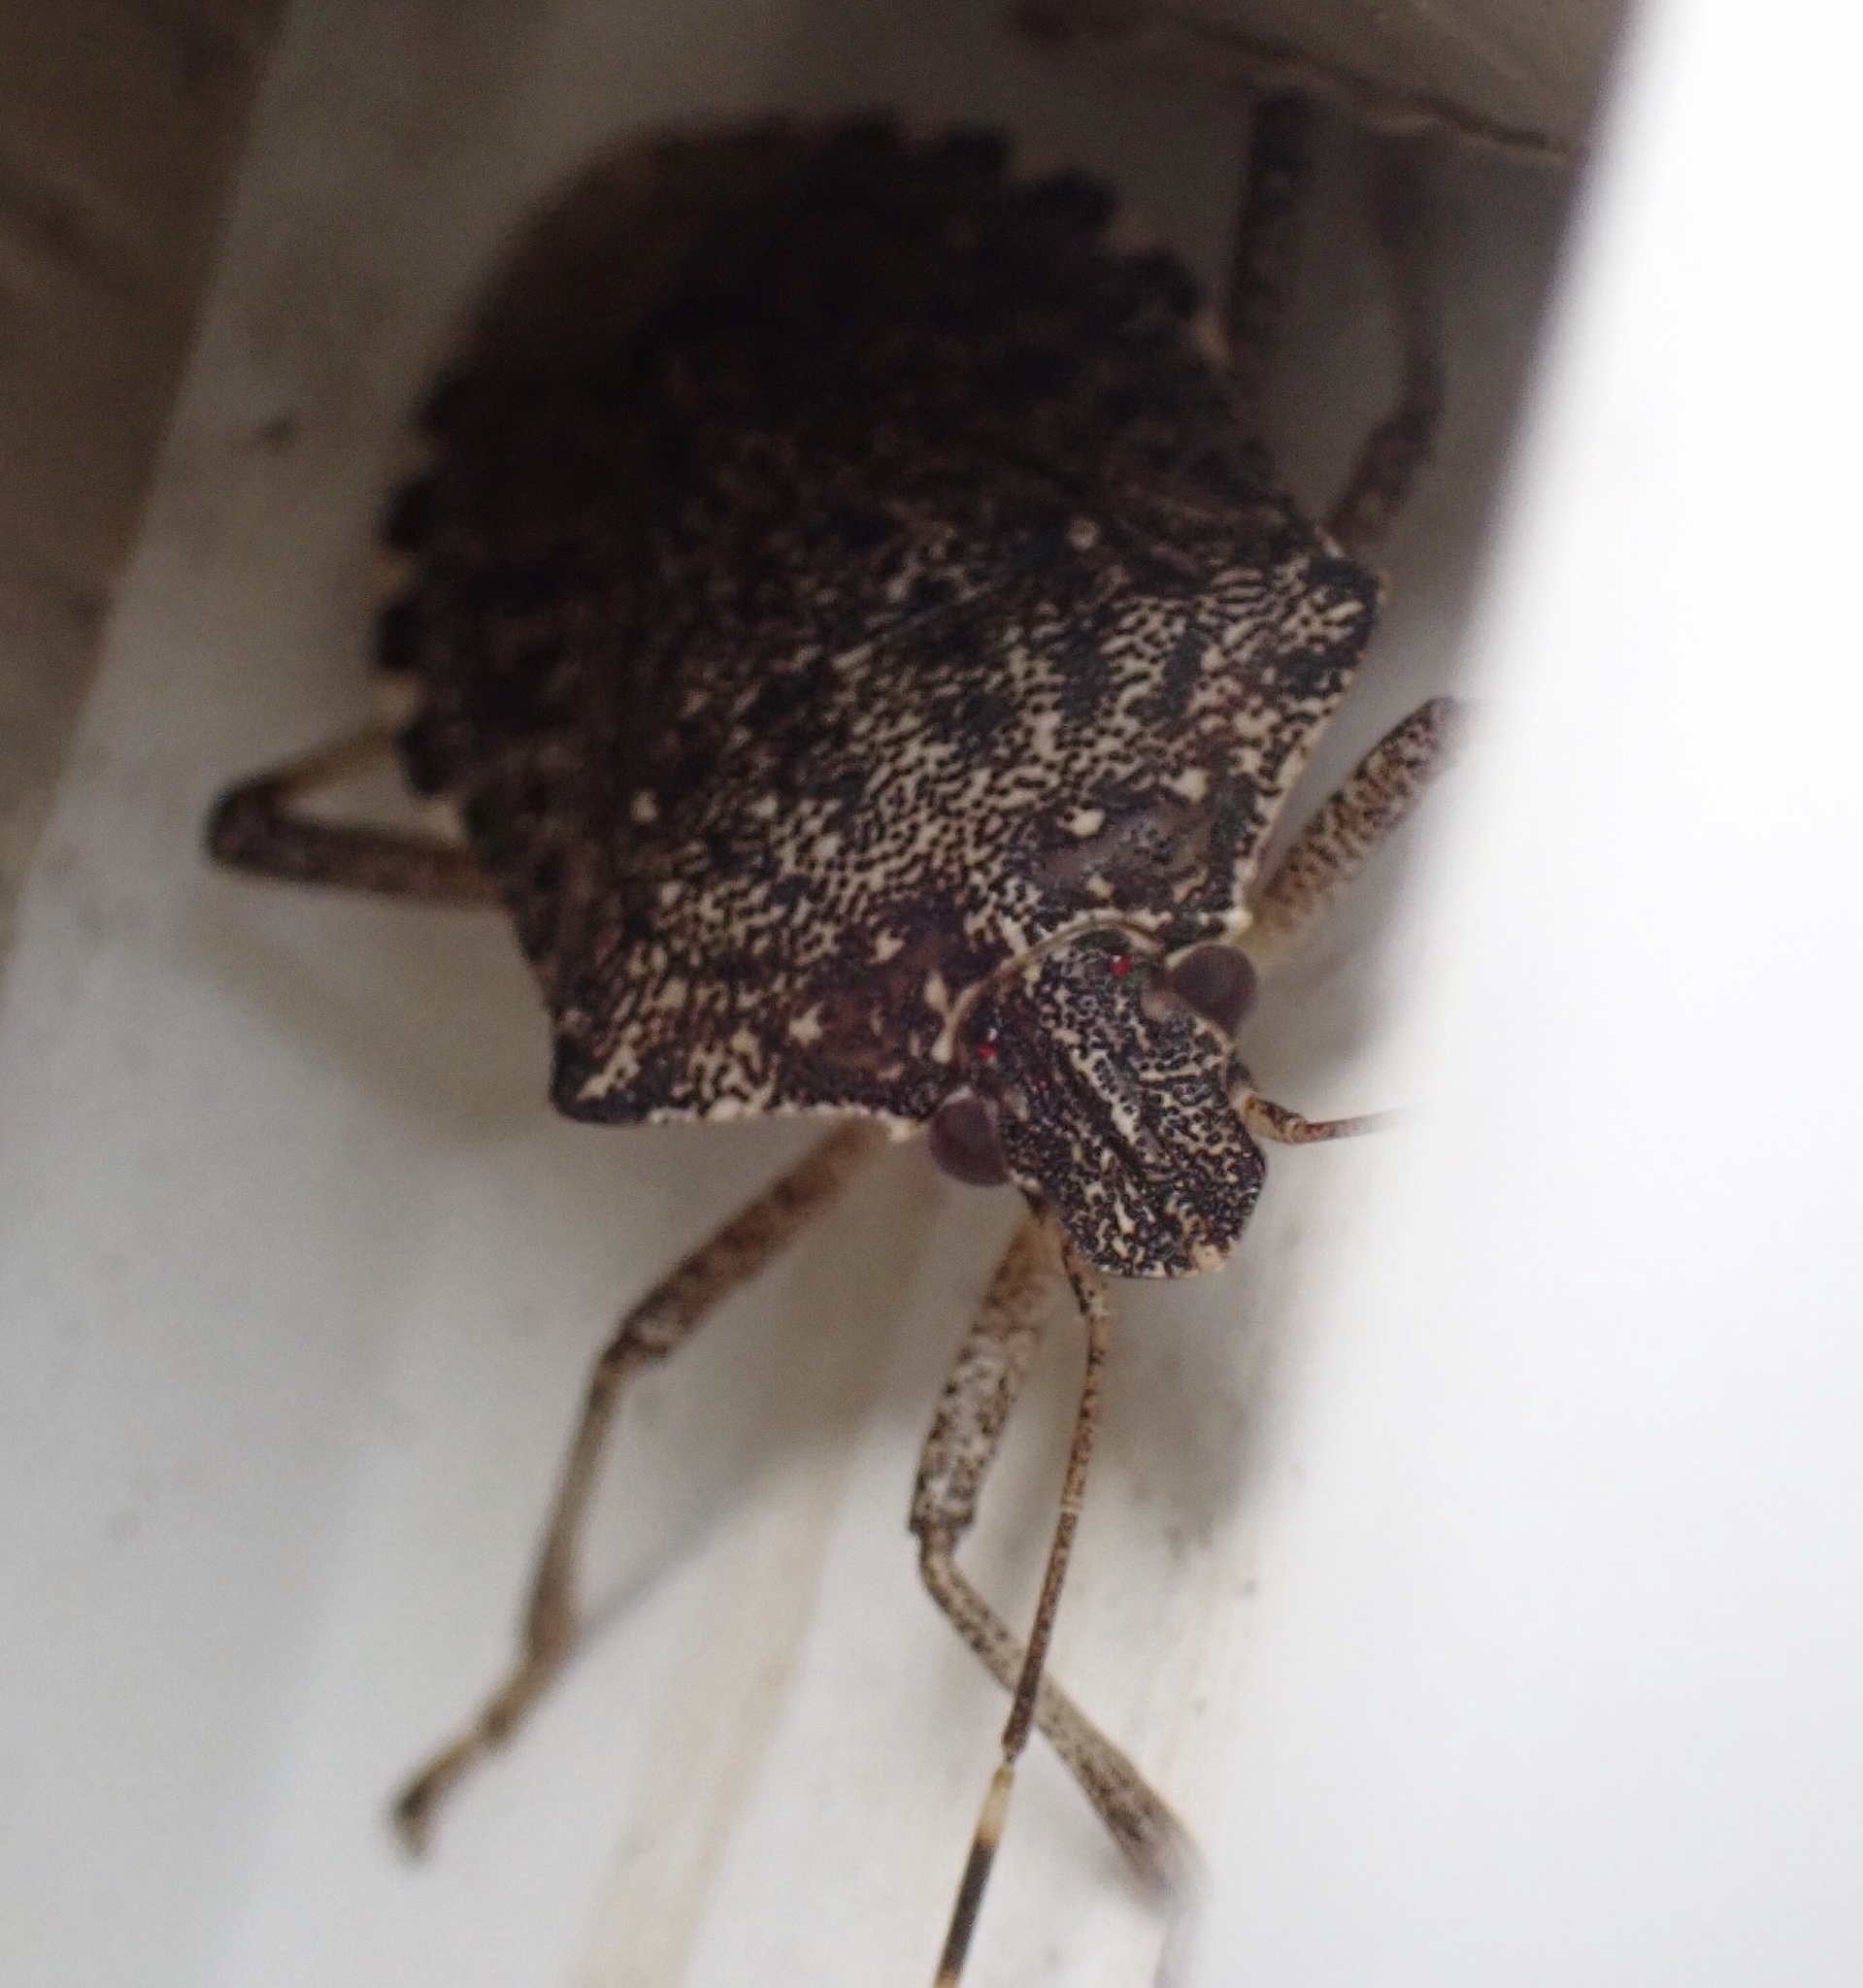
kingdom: Animalia
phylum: Arthropoda
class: Insecta
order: Hemiptera
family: Pentatomidae
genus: Halyomorpha
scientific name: Halyomorpha halys
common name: Brown marmorated stink bug
